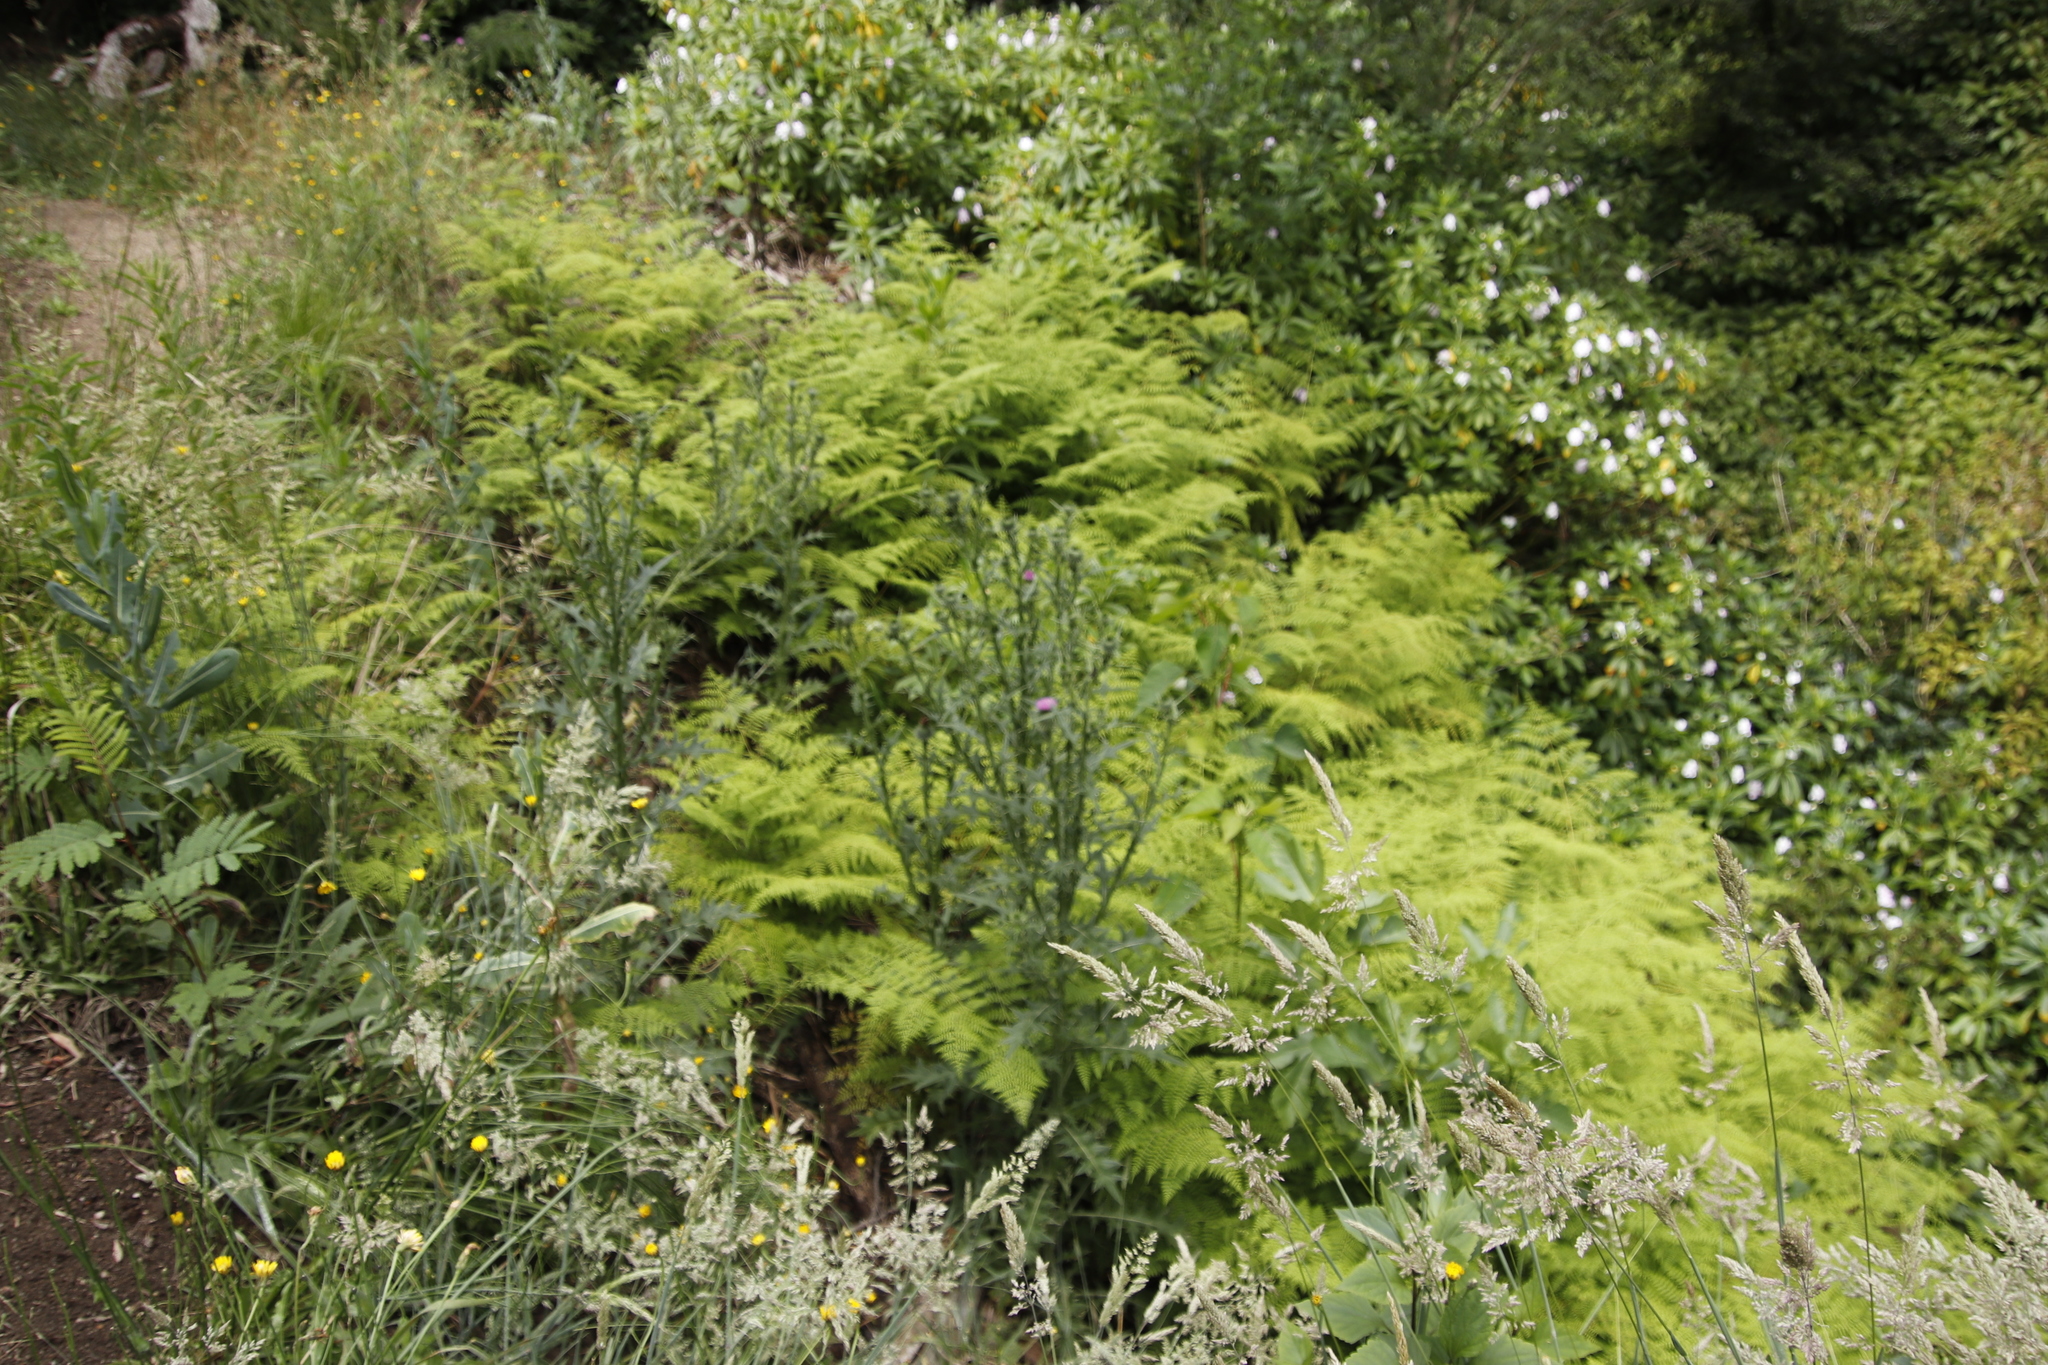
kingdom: Plantae
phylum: Tracheophyta
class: Magnoliopsida
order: Asterales
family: Asteraceae
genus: Cirsium
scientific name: Cirsium vulgare
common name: Bull thistle
